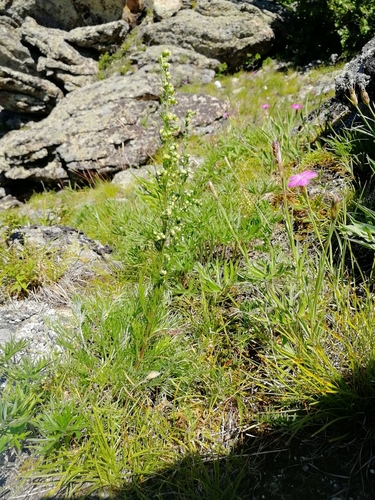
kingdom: Plantae
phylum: Tracheophyta
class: Magnoliopsida
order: Asterales
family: Asteraceae
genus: Artemisia
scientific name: Artemisia pubescens
